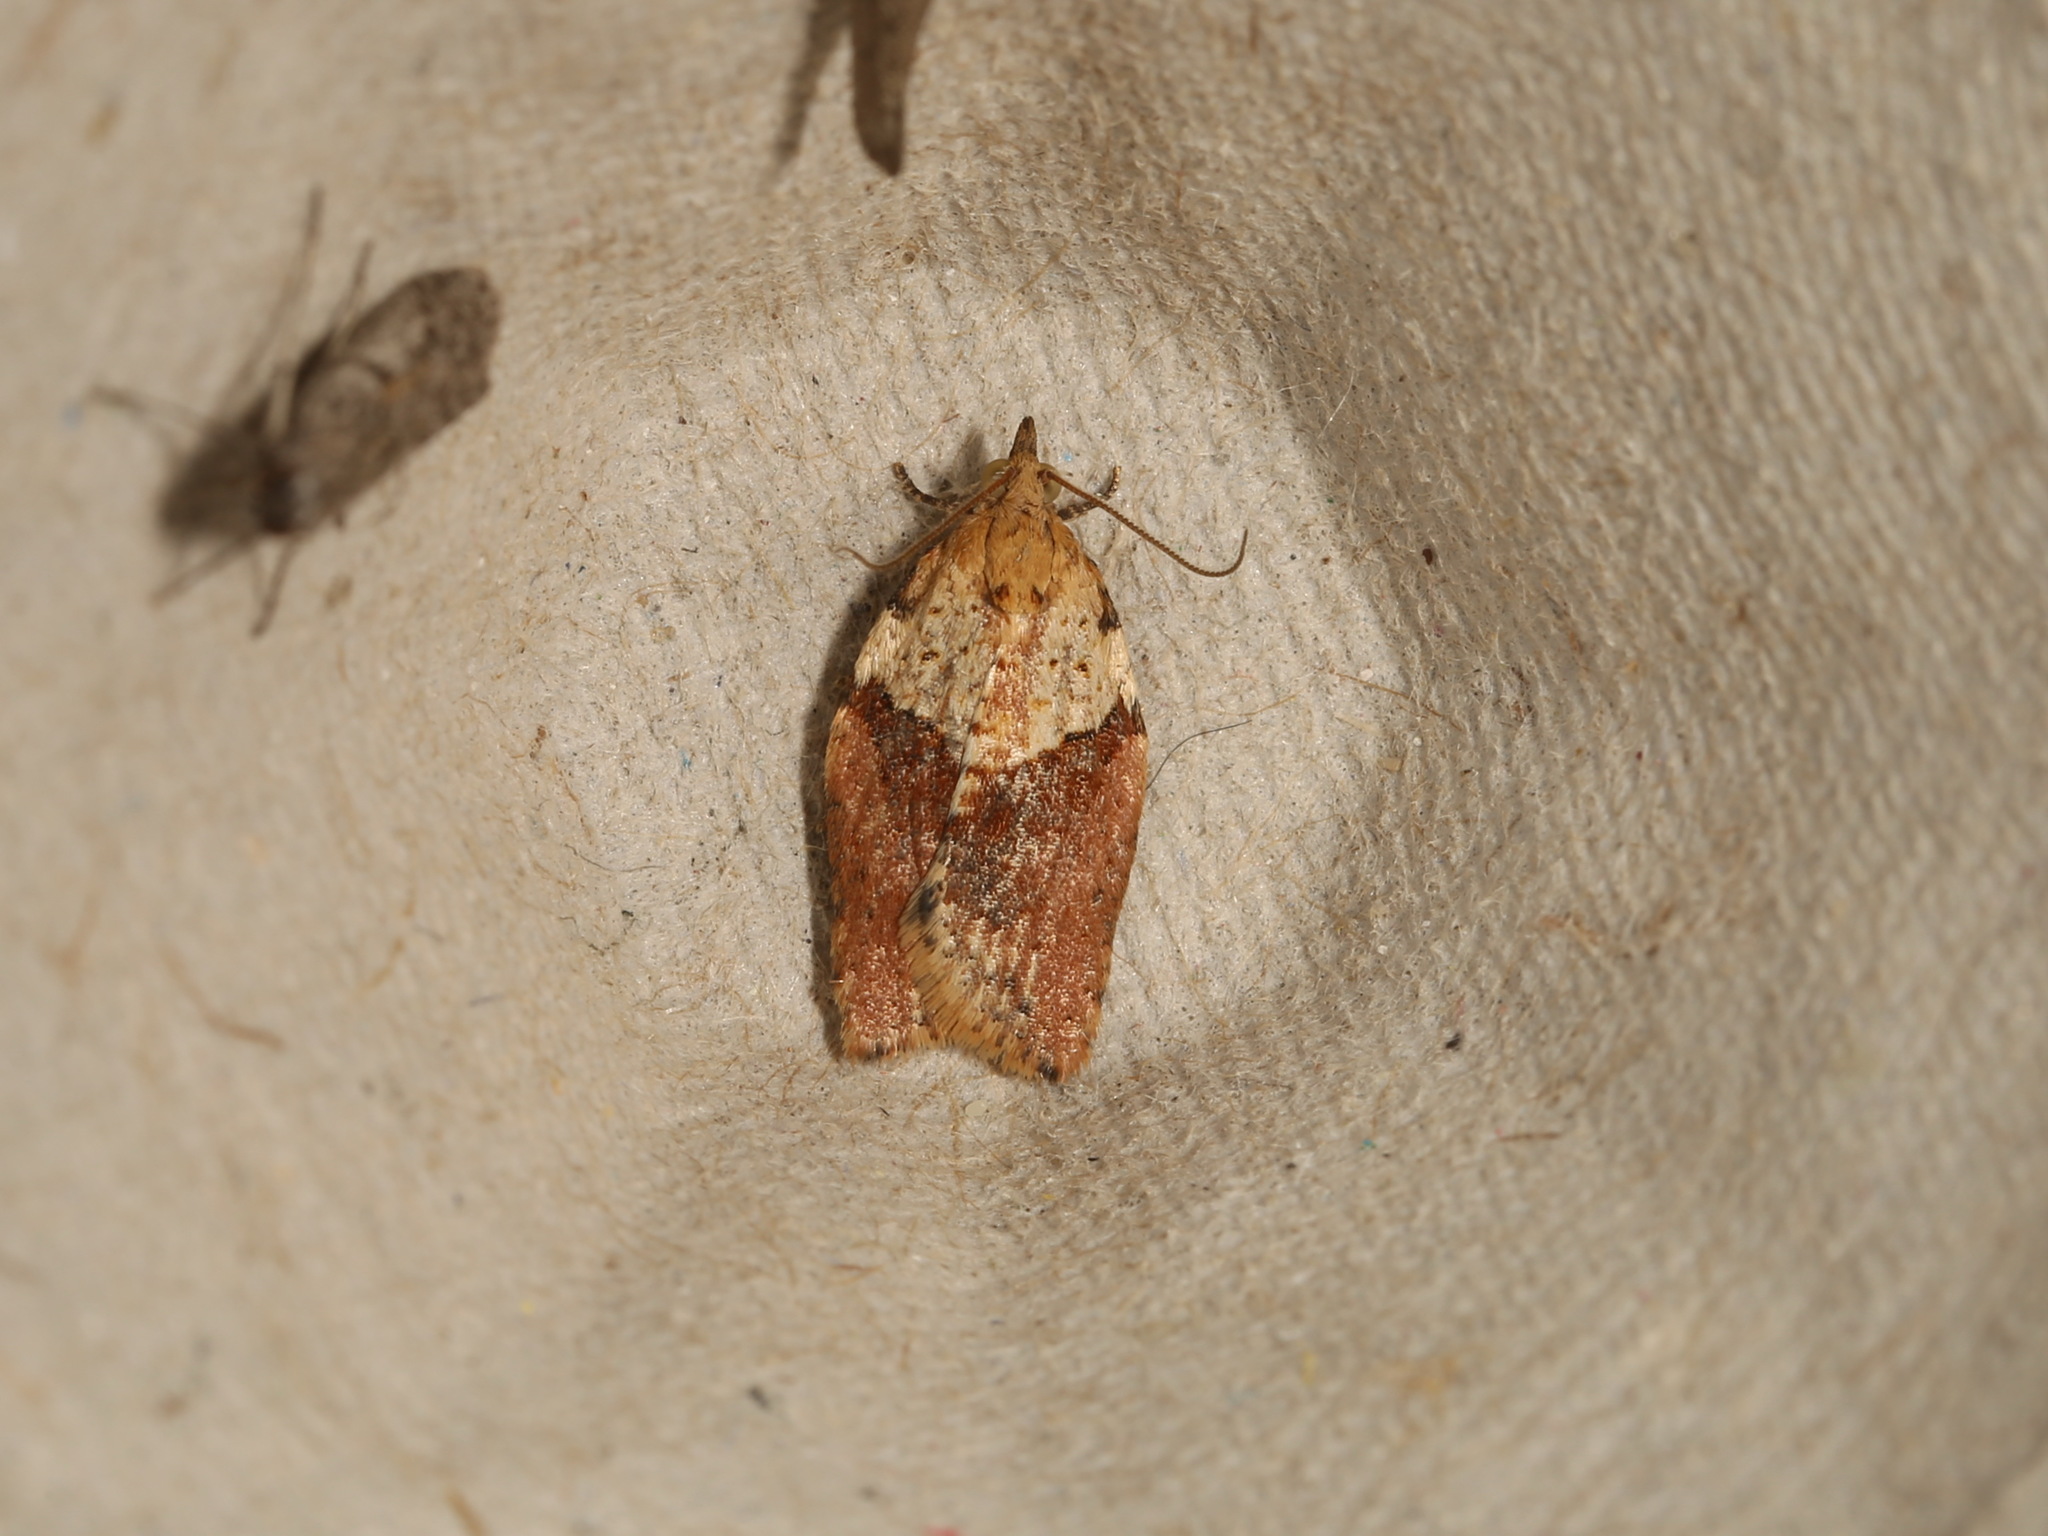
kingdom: Animalia
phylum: Arthropoda
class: Insecta
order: Lepidoptera
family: Tortricidae
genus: Epiphyas
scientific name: Epiphyas postvittana
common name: Light brown apple moth
